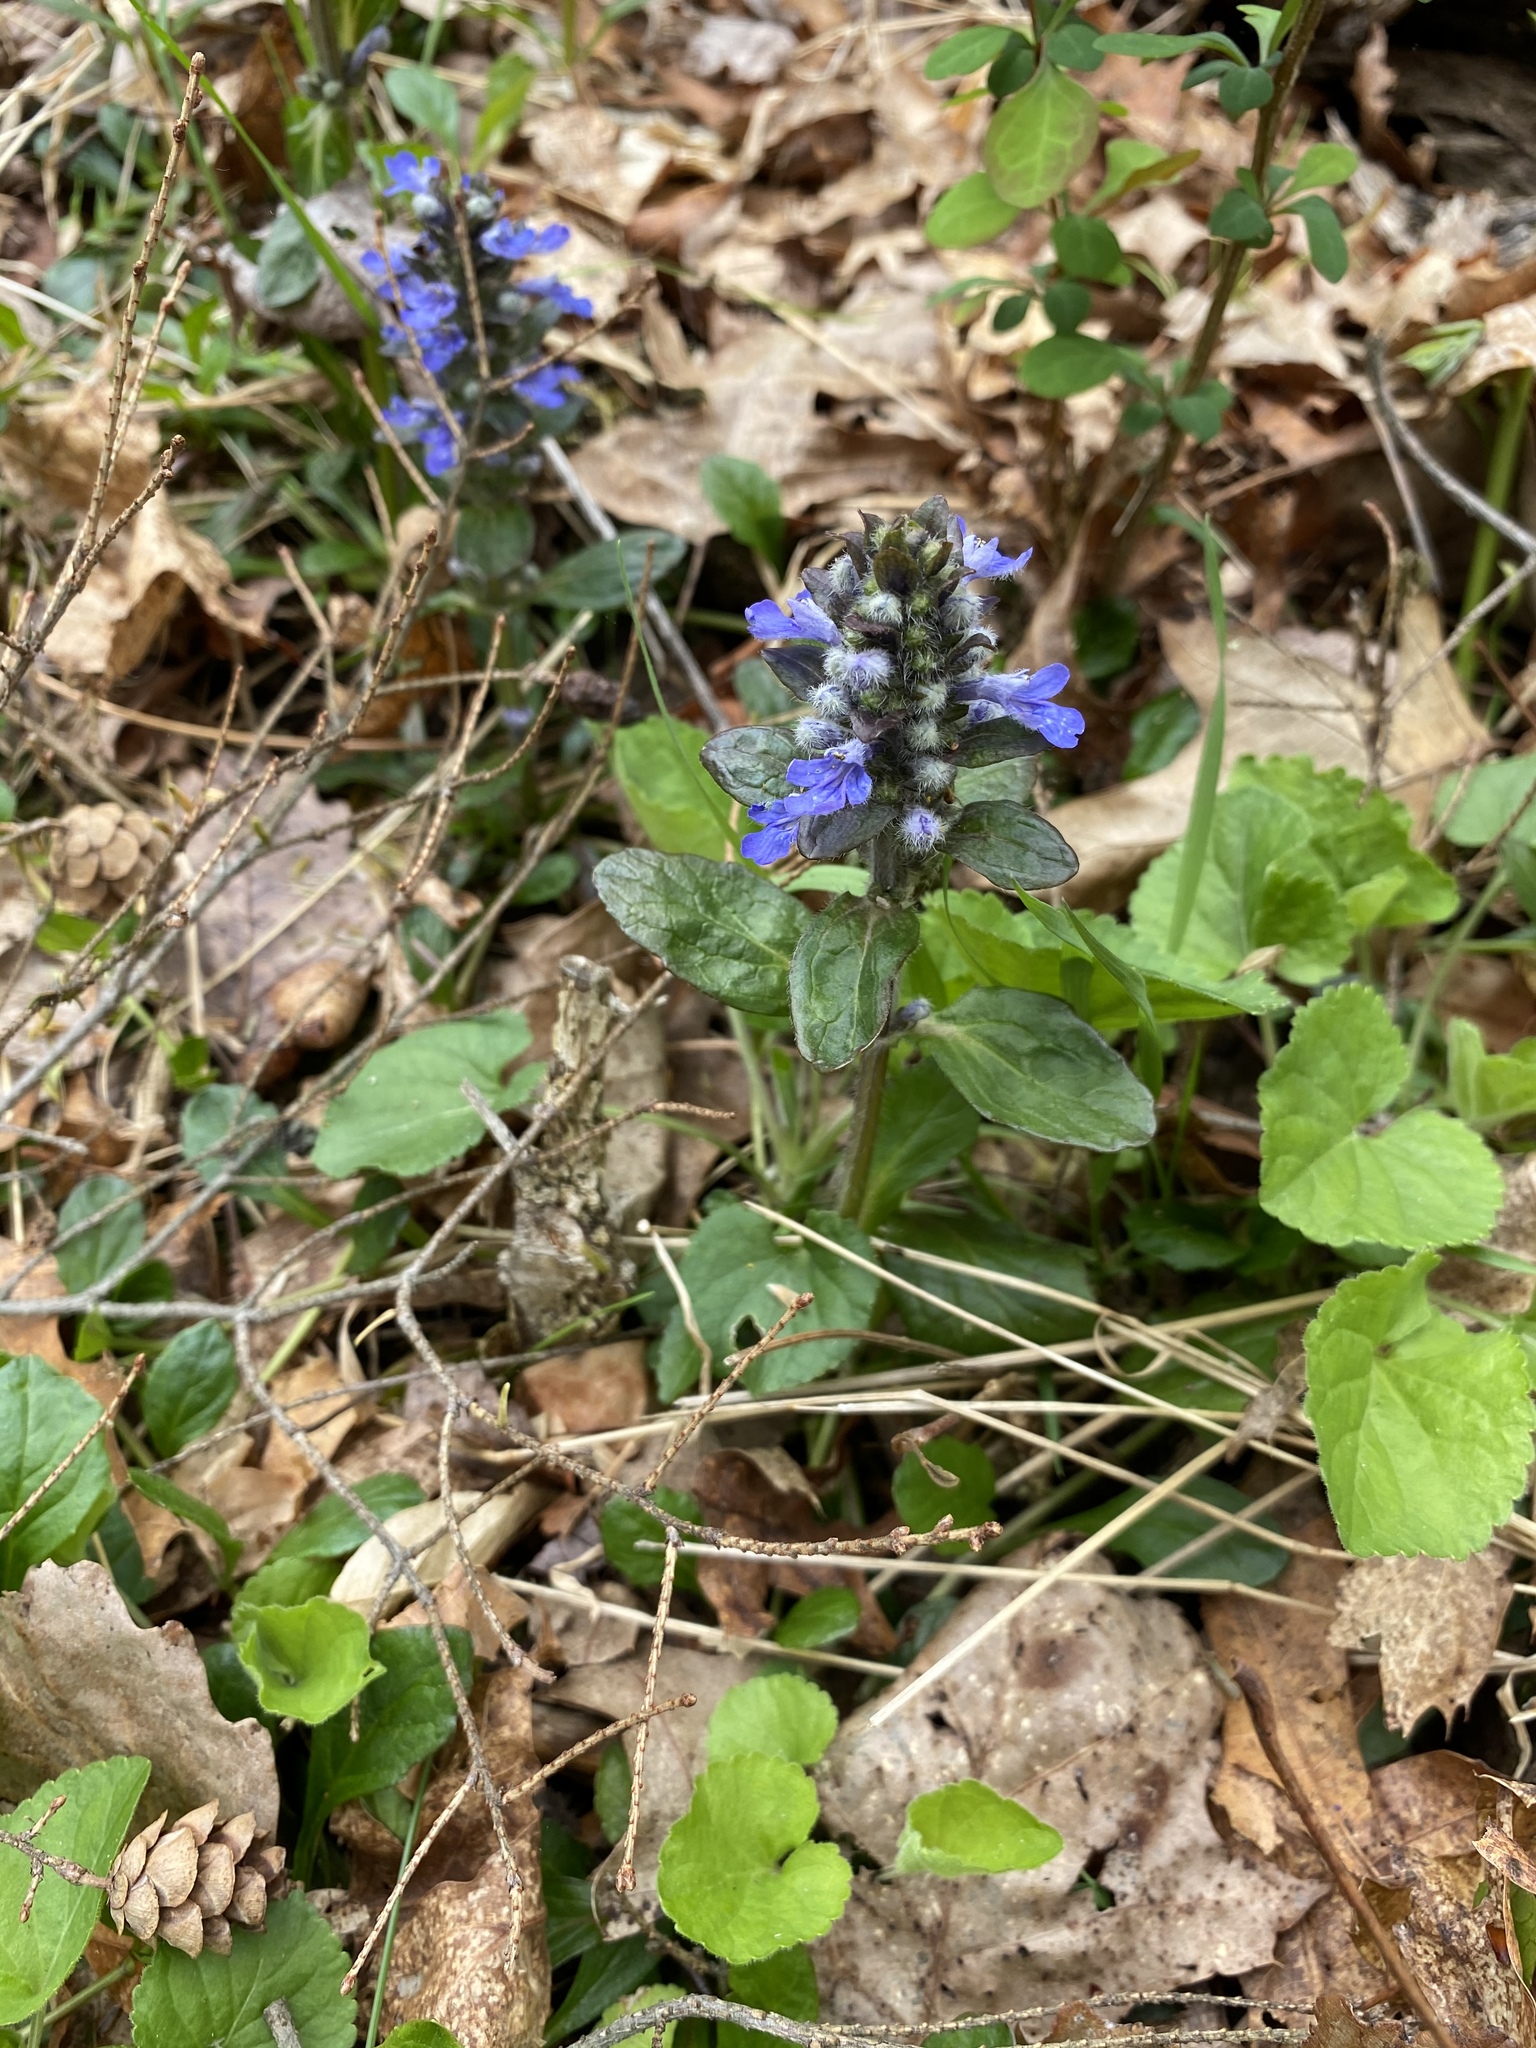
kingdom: Plantae
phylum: Tracheophyta
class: Magnoliopsida
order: Lamiales
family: Lamiaceae
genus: Ajuga
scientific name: Ajuga reptans
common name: Bugle
